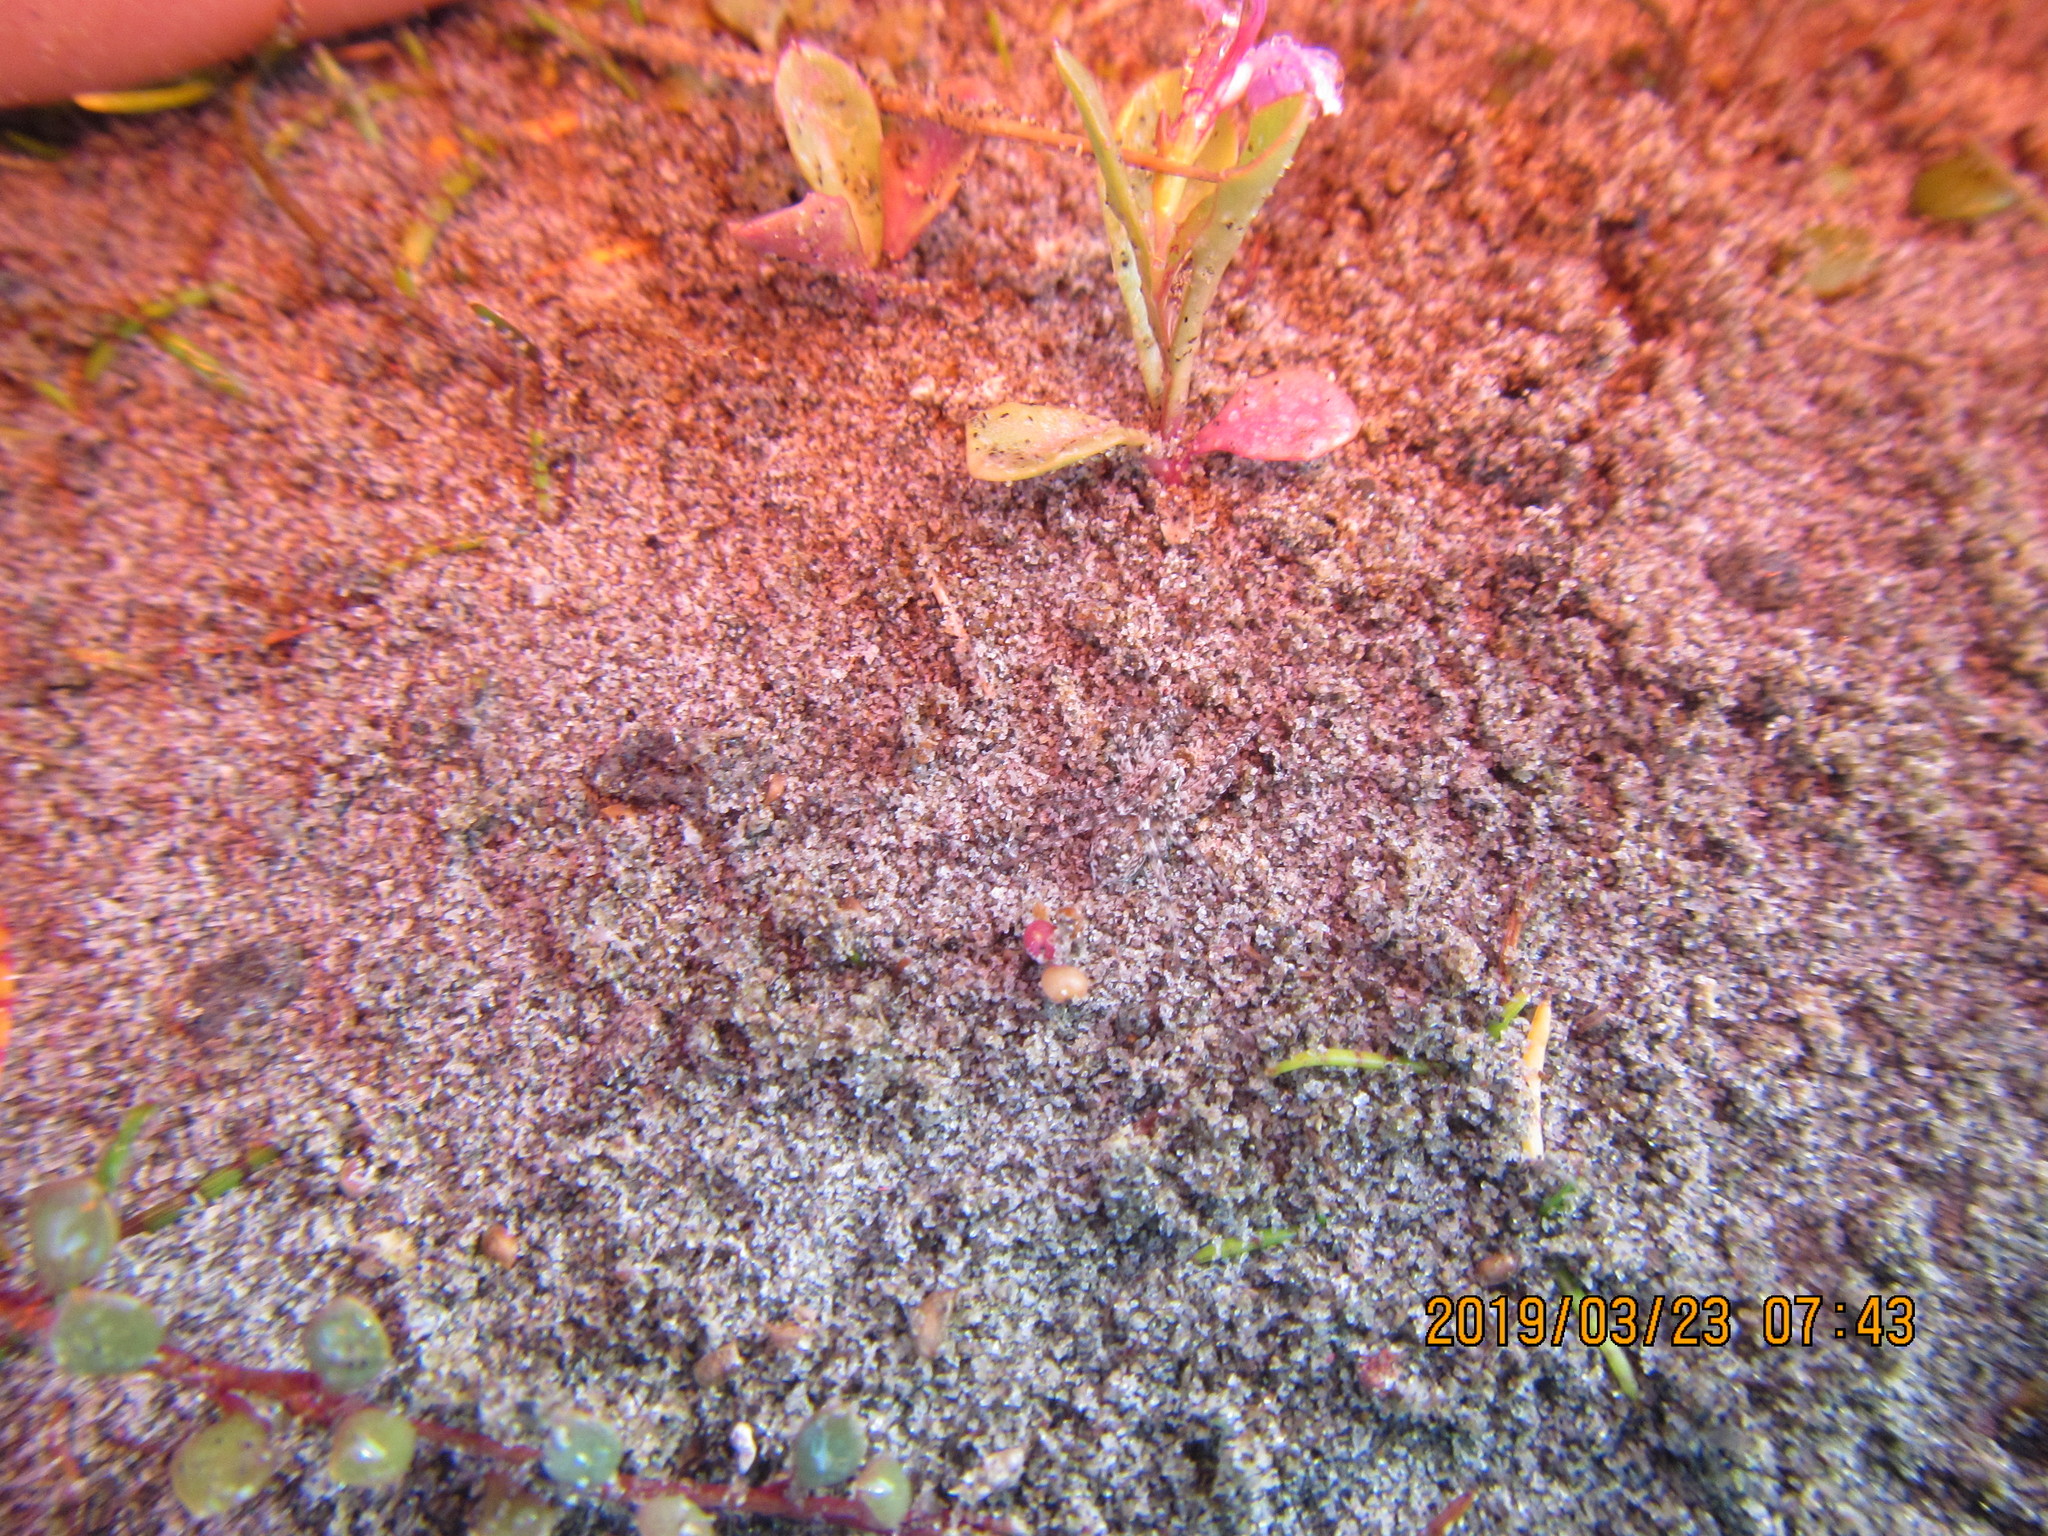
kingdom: Animalia
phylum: Arthropoda
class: Arachnida
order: Araneae
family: Lycosidae
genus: Anoteropsis
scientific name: Anoteropsis litoralis
